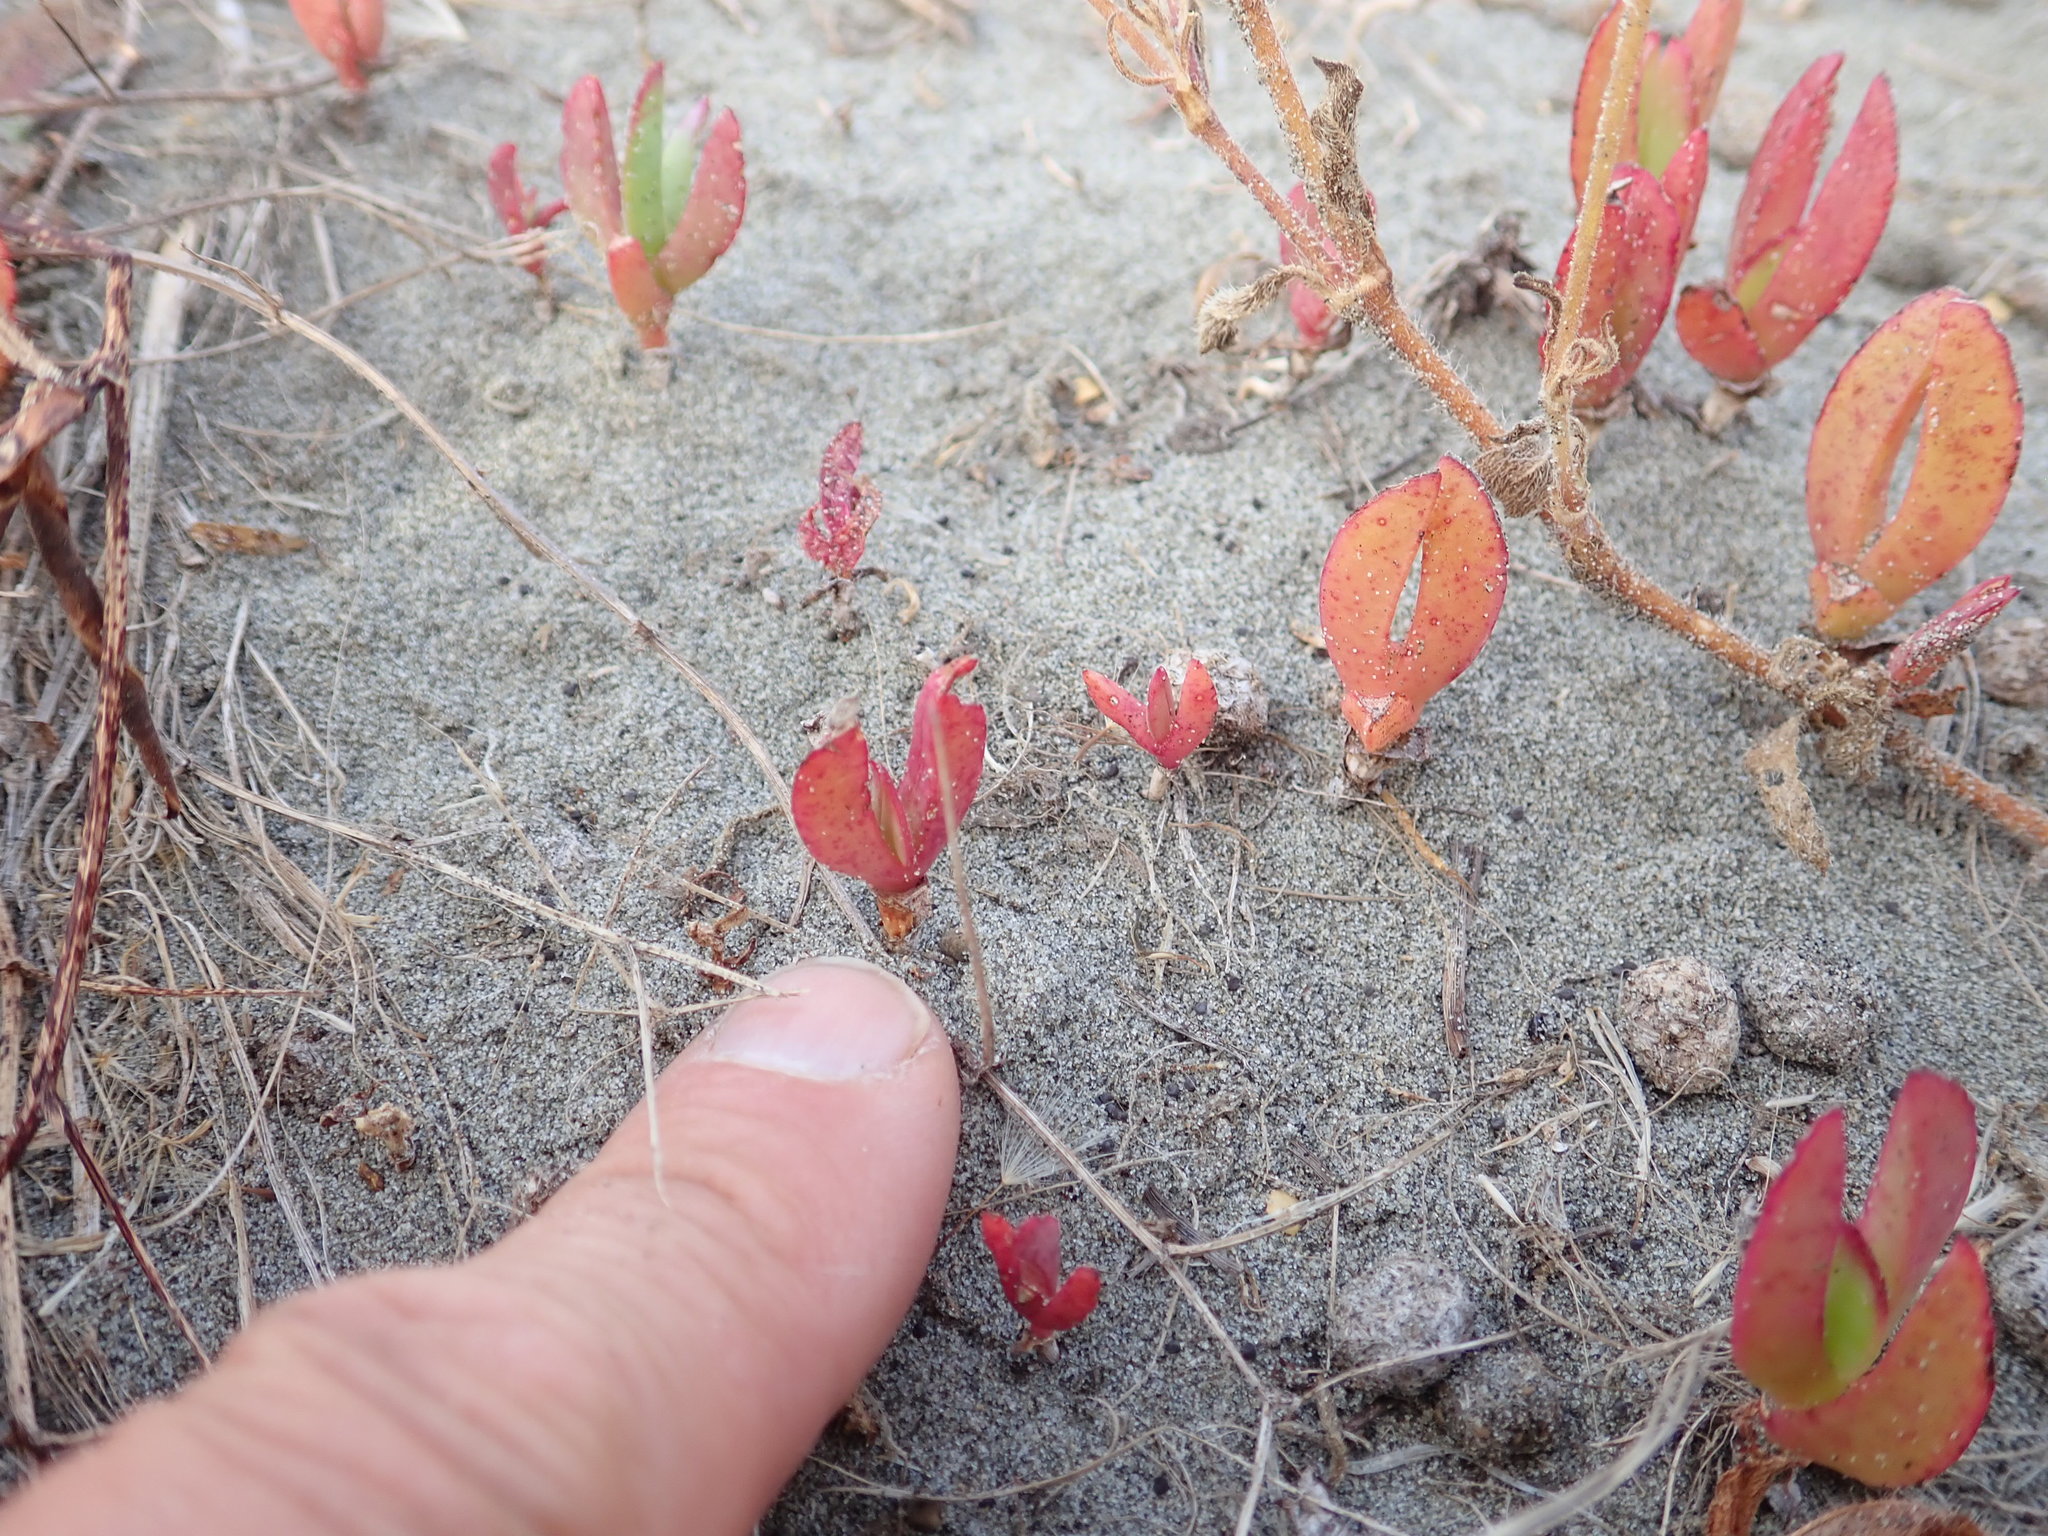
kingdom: Plantae
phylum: Tracheophyta
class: Magnoliopsida
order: Caryophyllales
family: Aizoaceae
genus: Carpobrotus
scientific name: Carpobrotus
